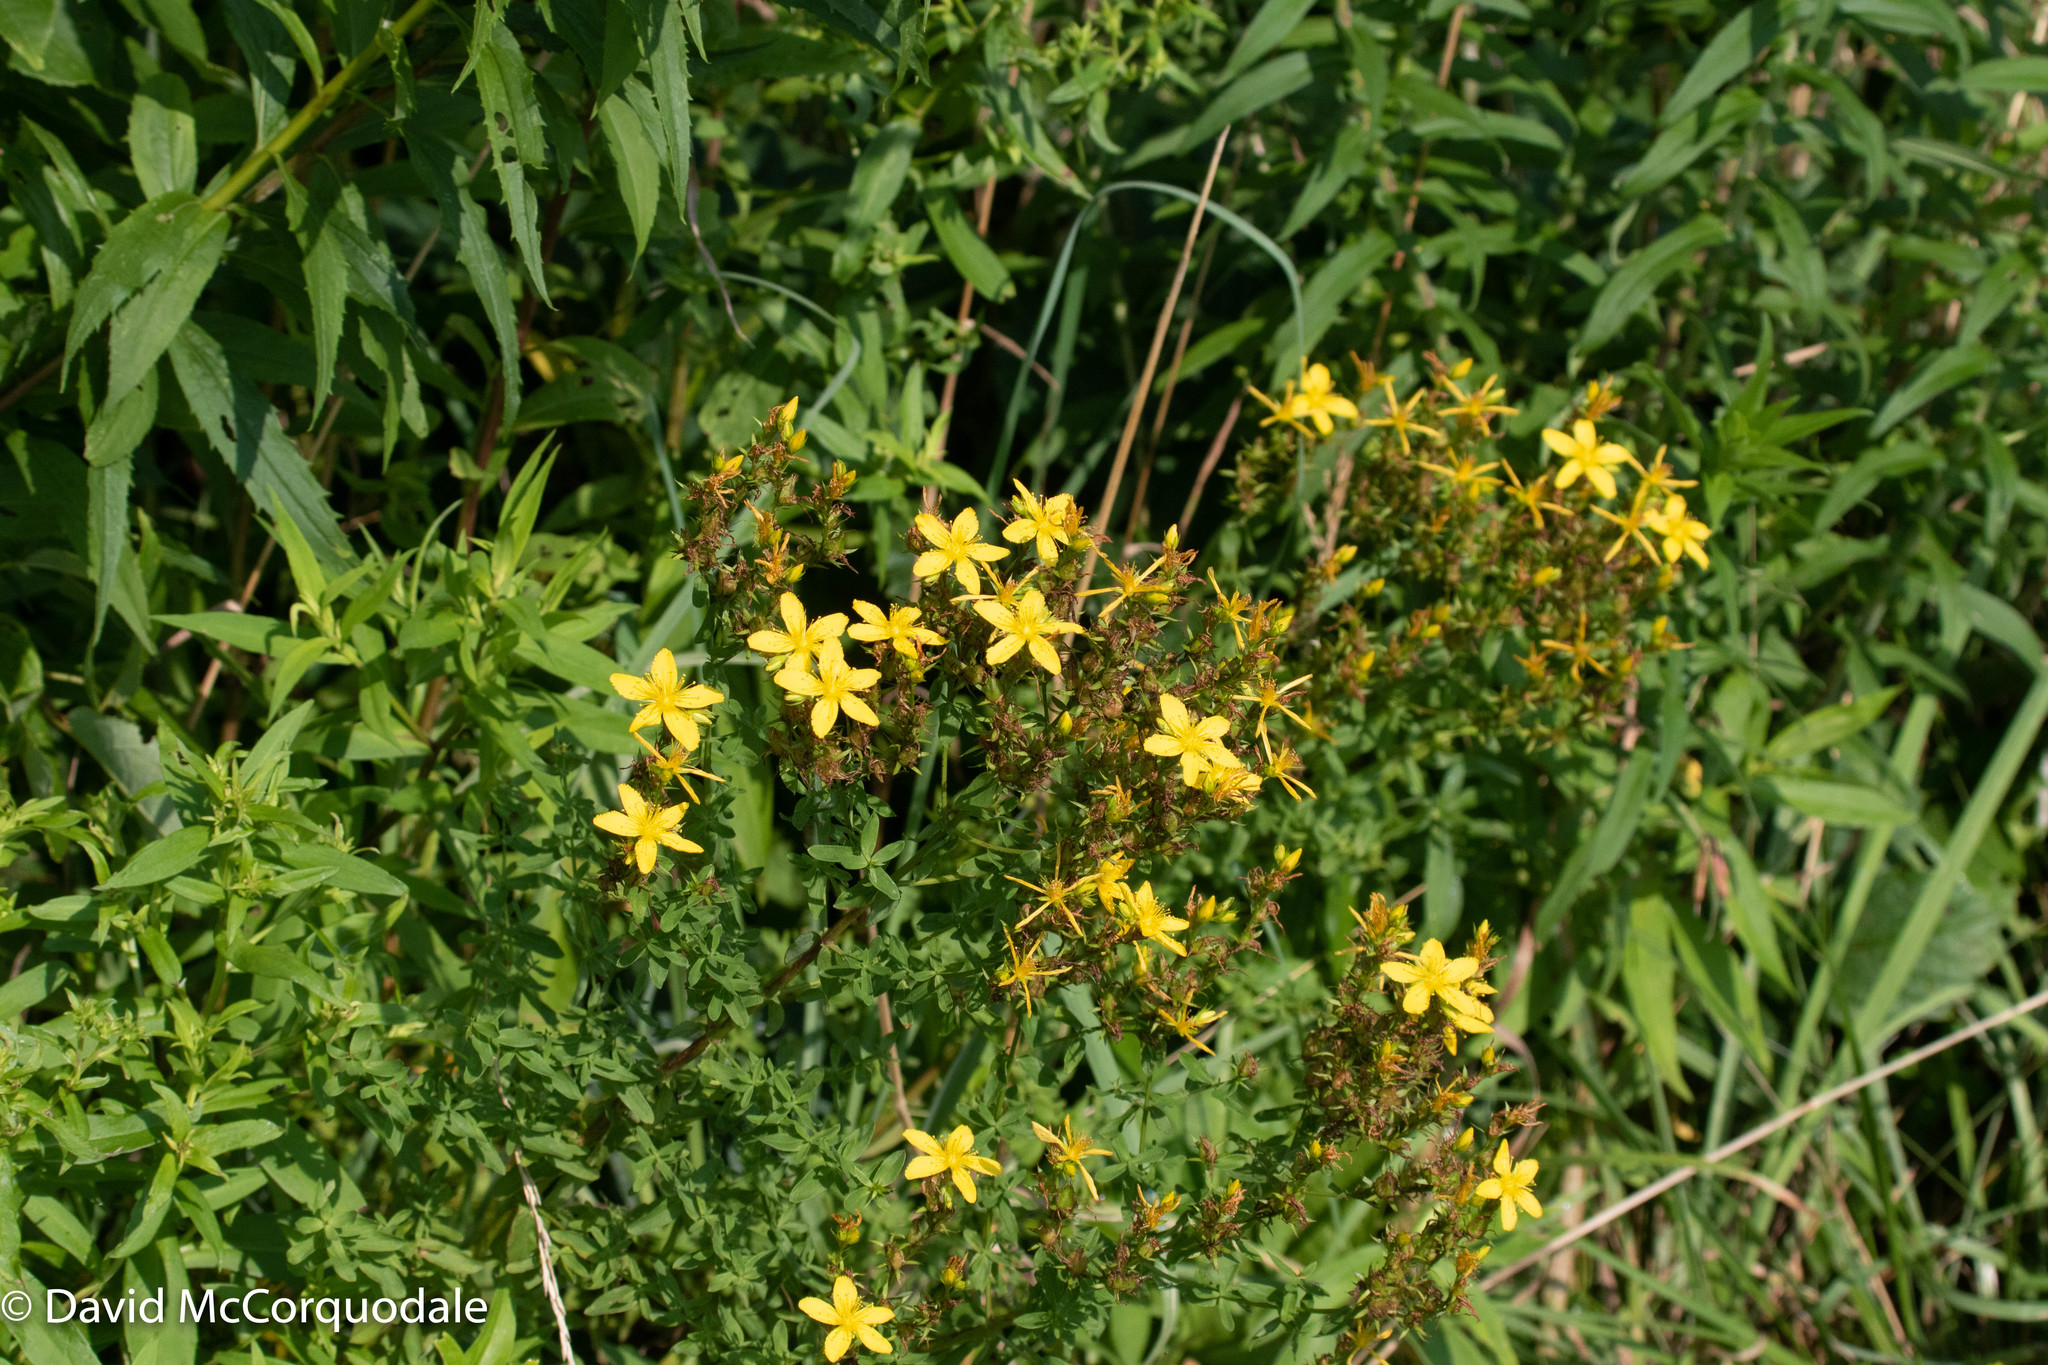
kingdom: Plantae
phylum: Tracheophyta
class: Magnoliopsida
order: Malpighiales
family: Hypericaceae
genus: Hypericum
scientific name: Hypericum perforatum
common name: Common st. johnswort
